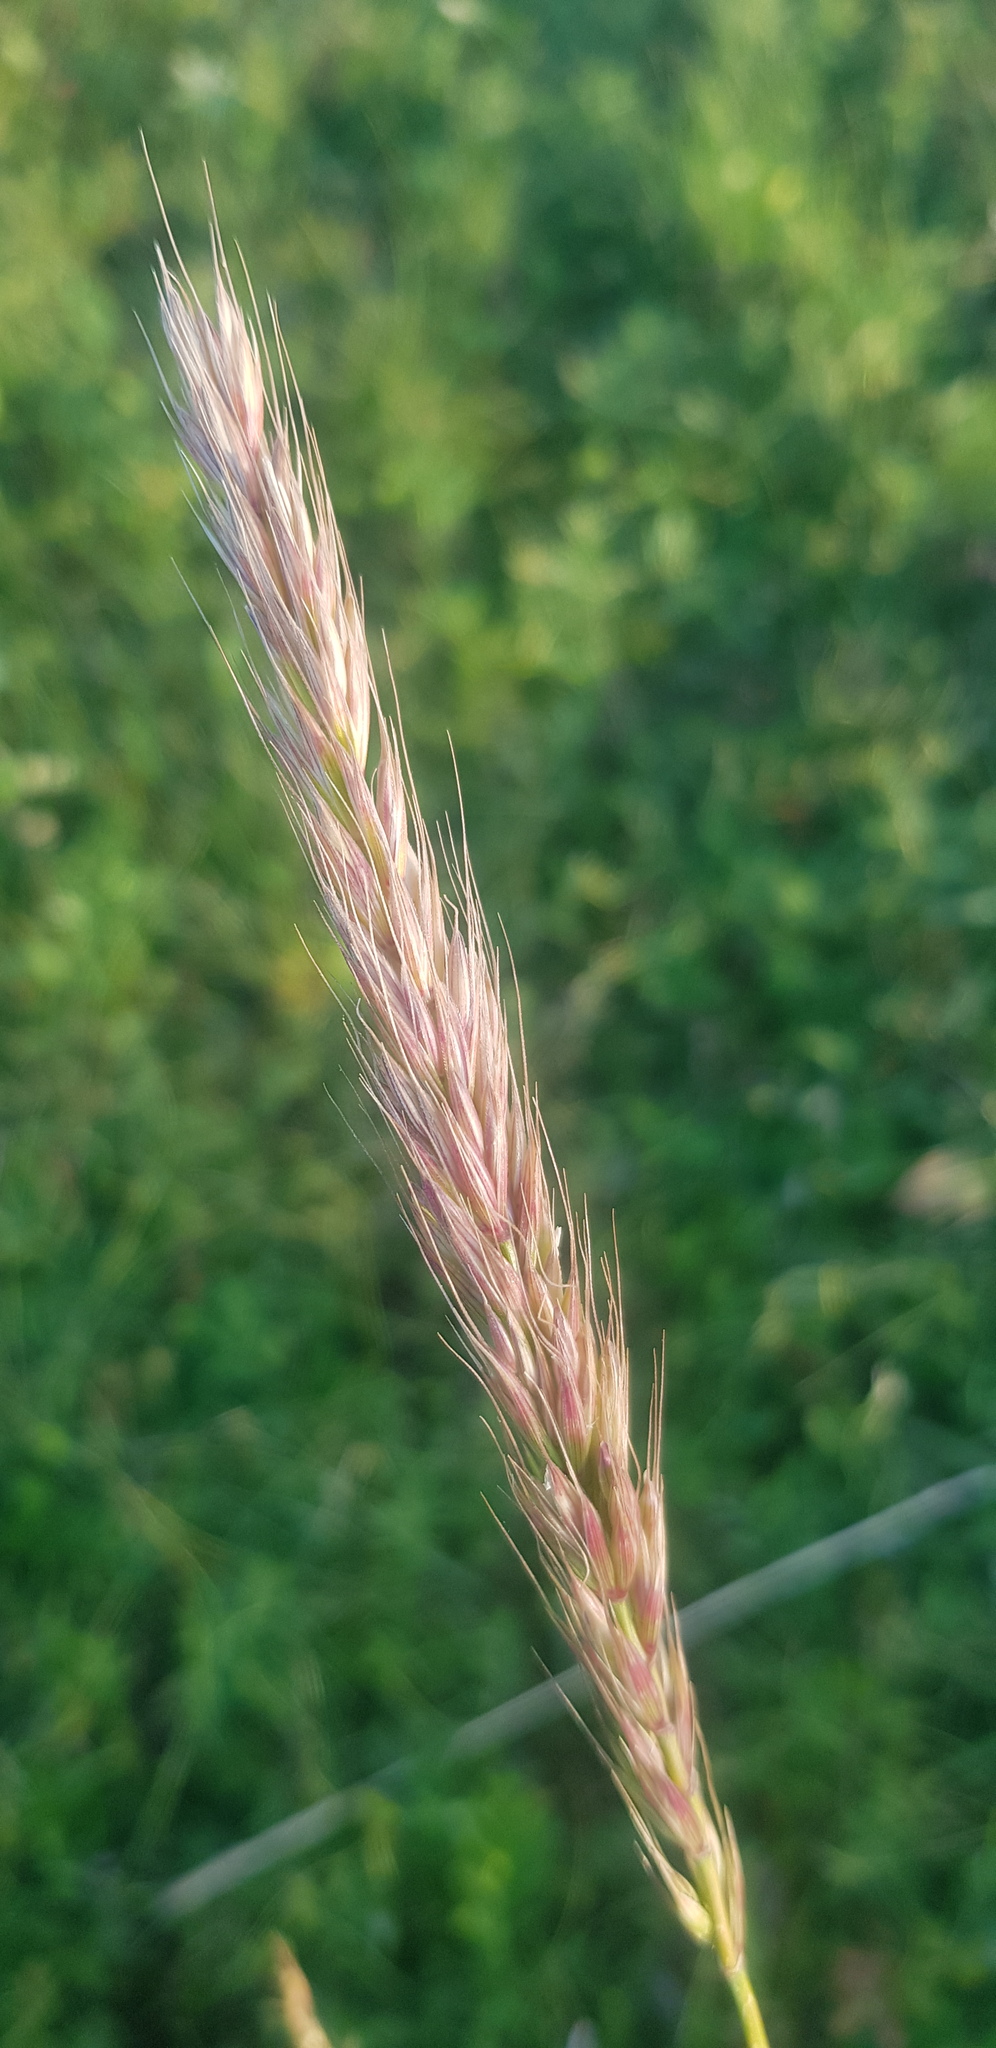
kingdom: Plantae
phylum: Tracheophyta
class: Liliopsida
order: Poales
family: Poaceae
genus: Elymus
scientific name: Elymus confusus
